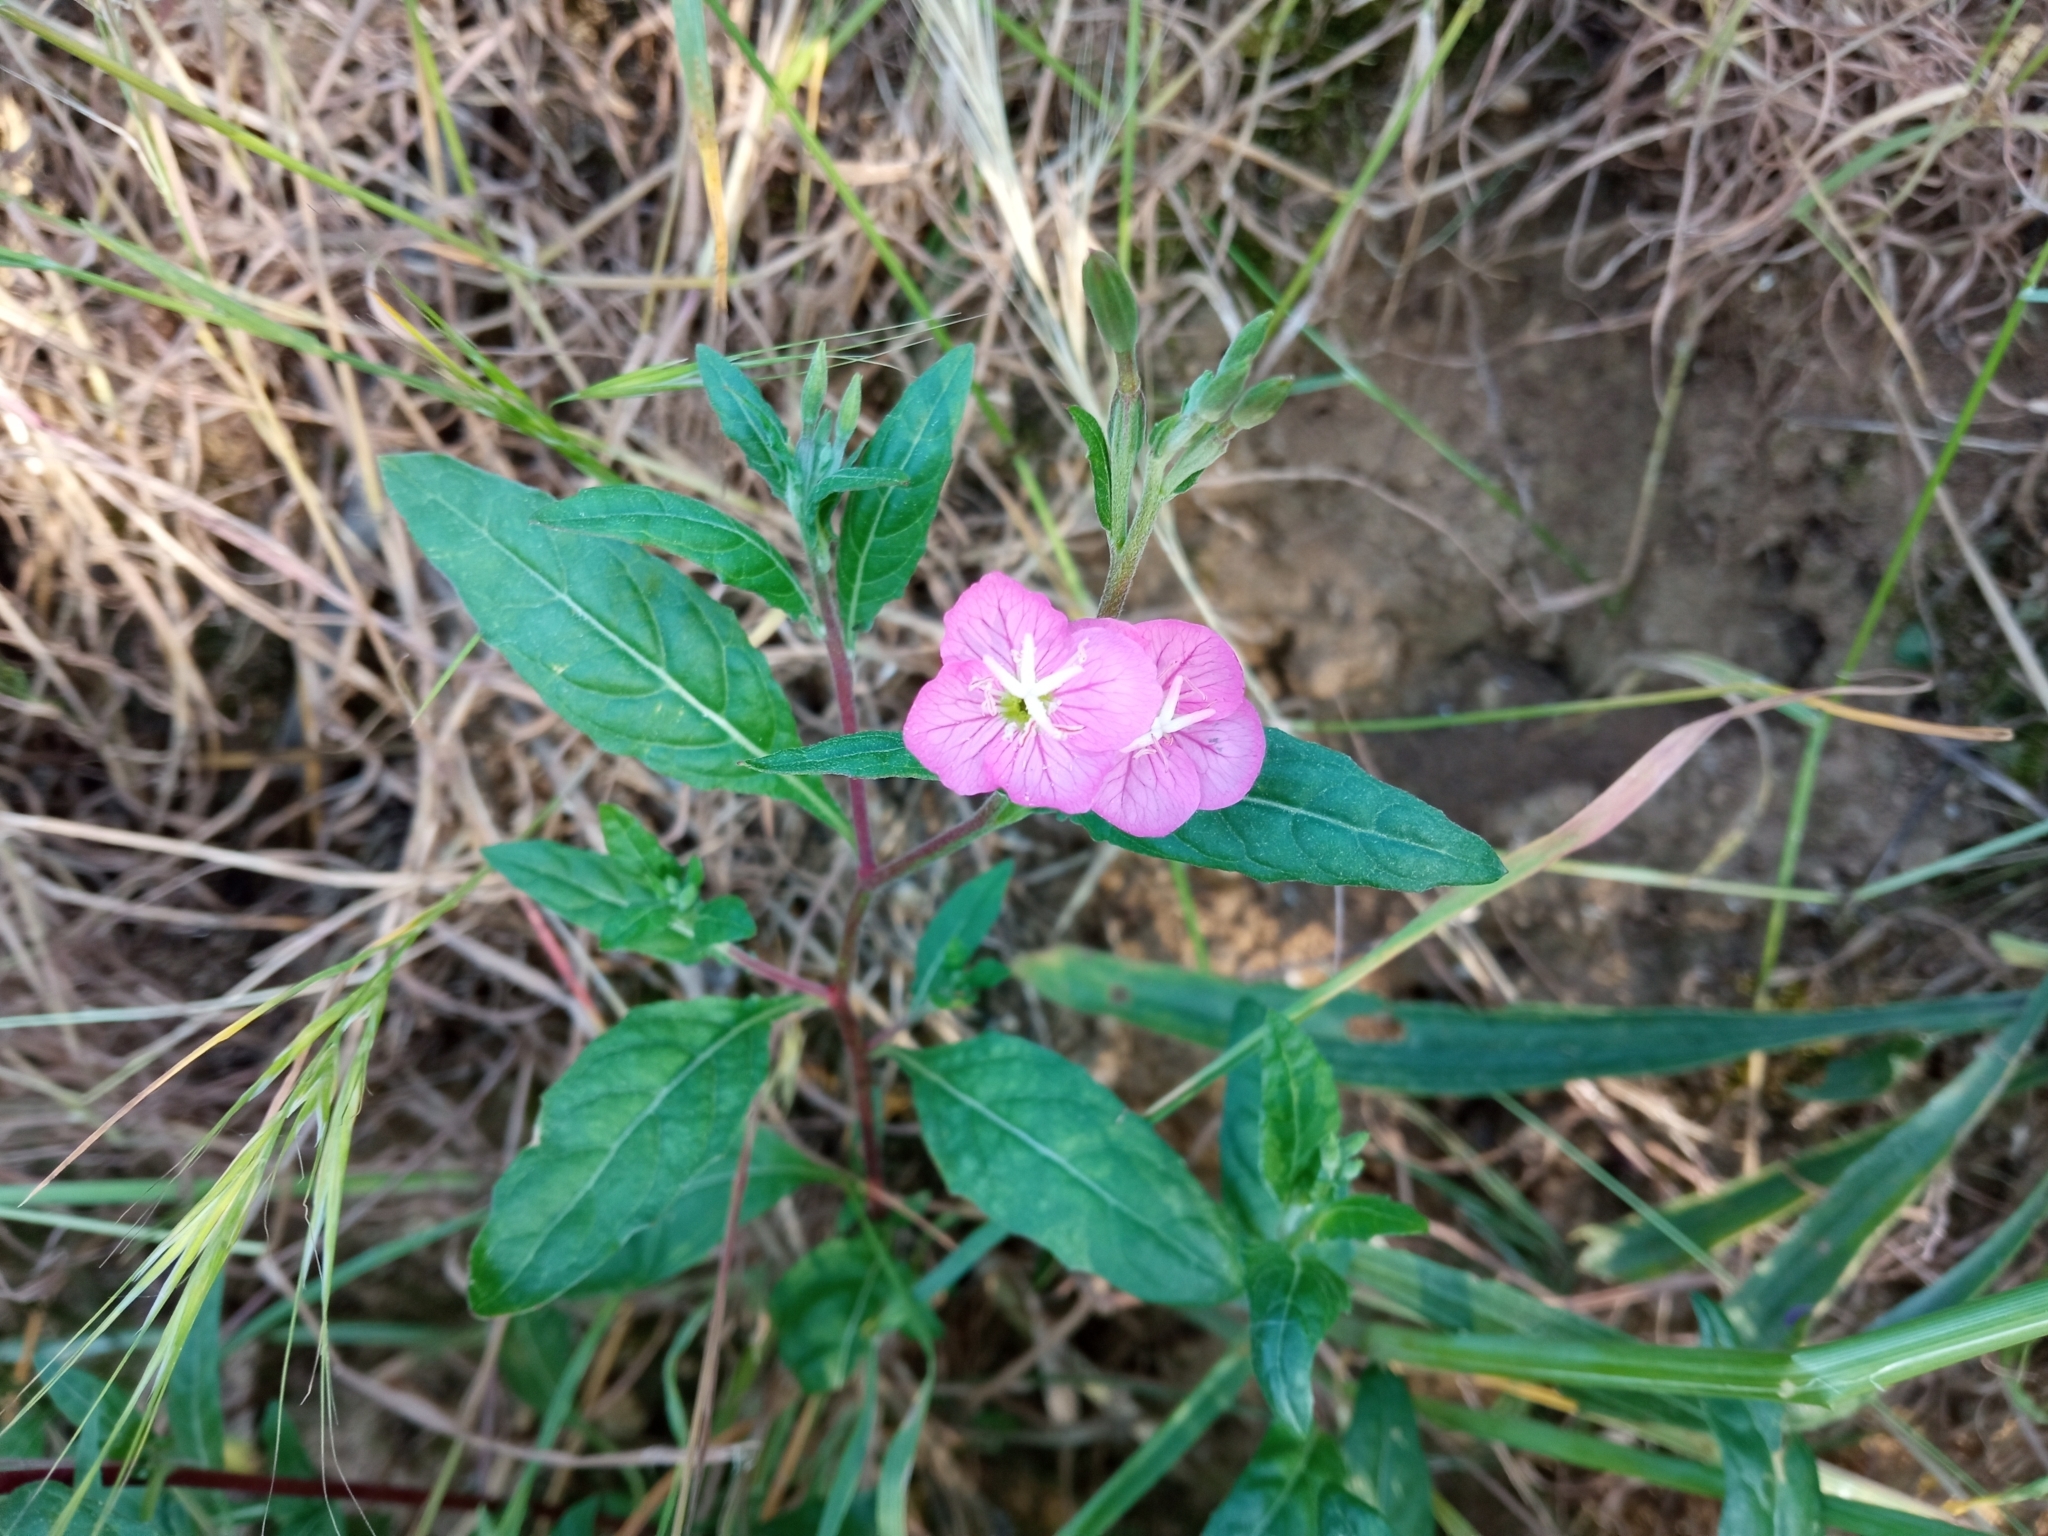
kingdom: Plantae
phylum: Tracheophyta
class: Magnoliopsida
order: Myrtales
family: Onagraceae
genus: Oenothera
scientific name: Oenothera rosea
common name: Rosy evening-primrose
